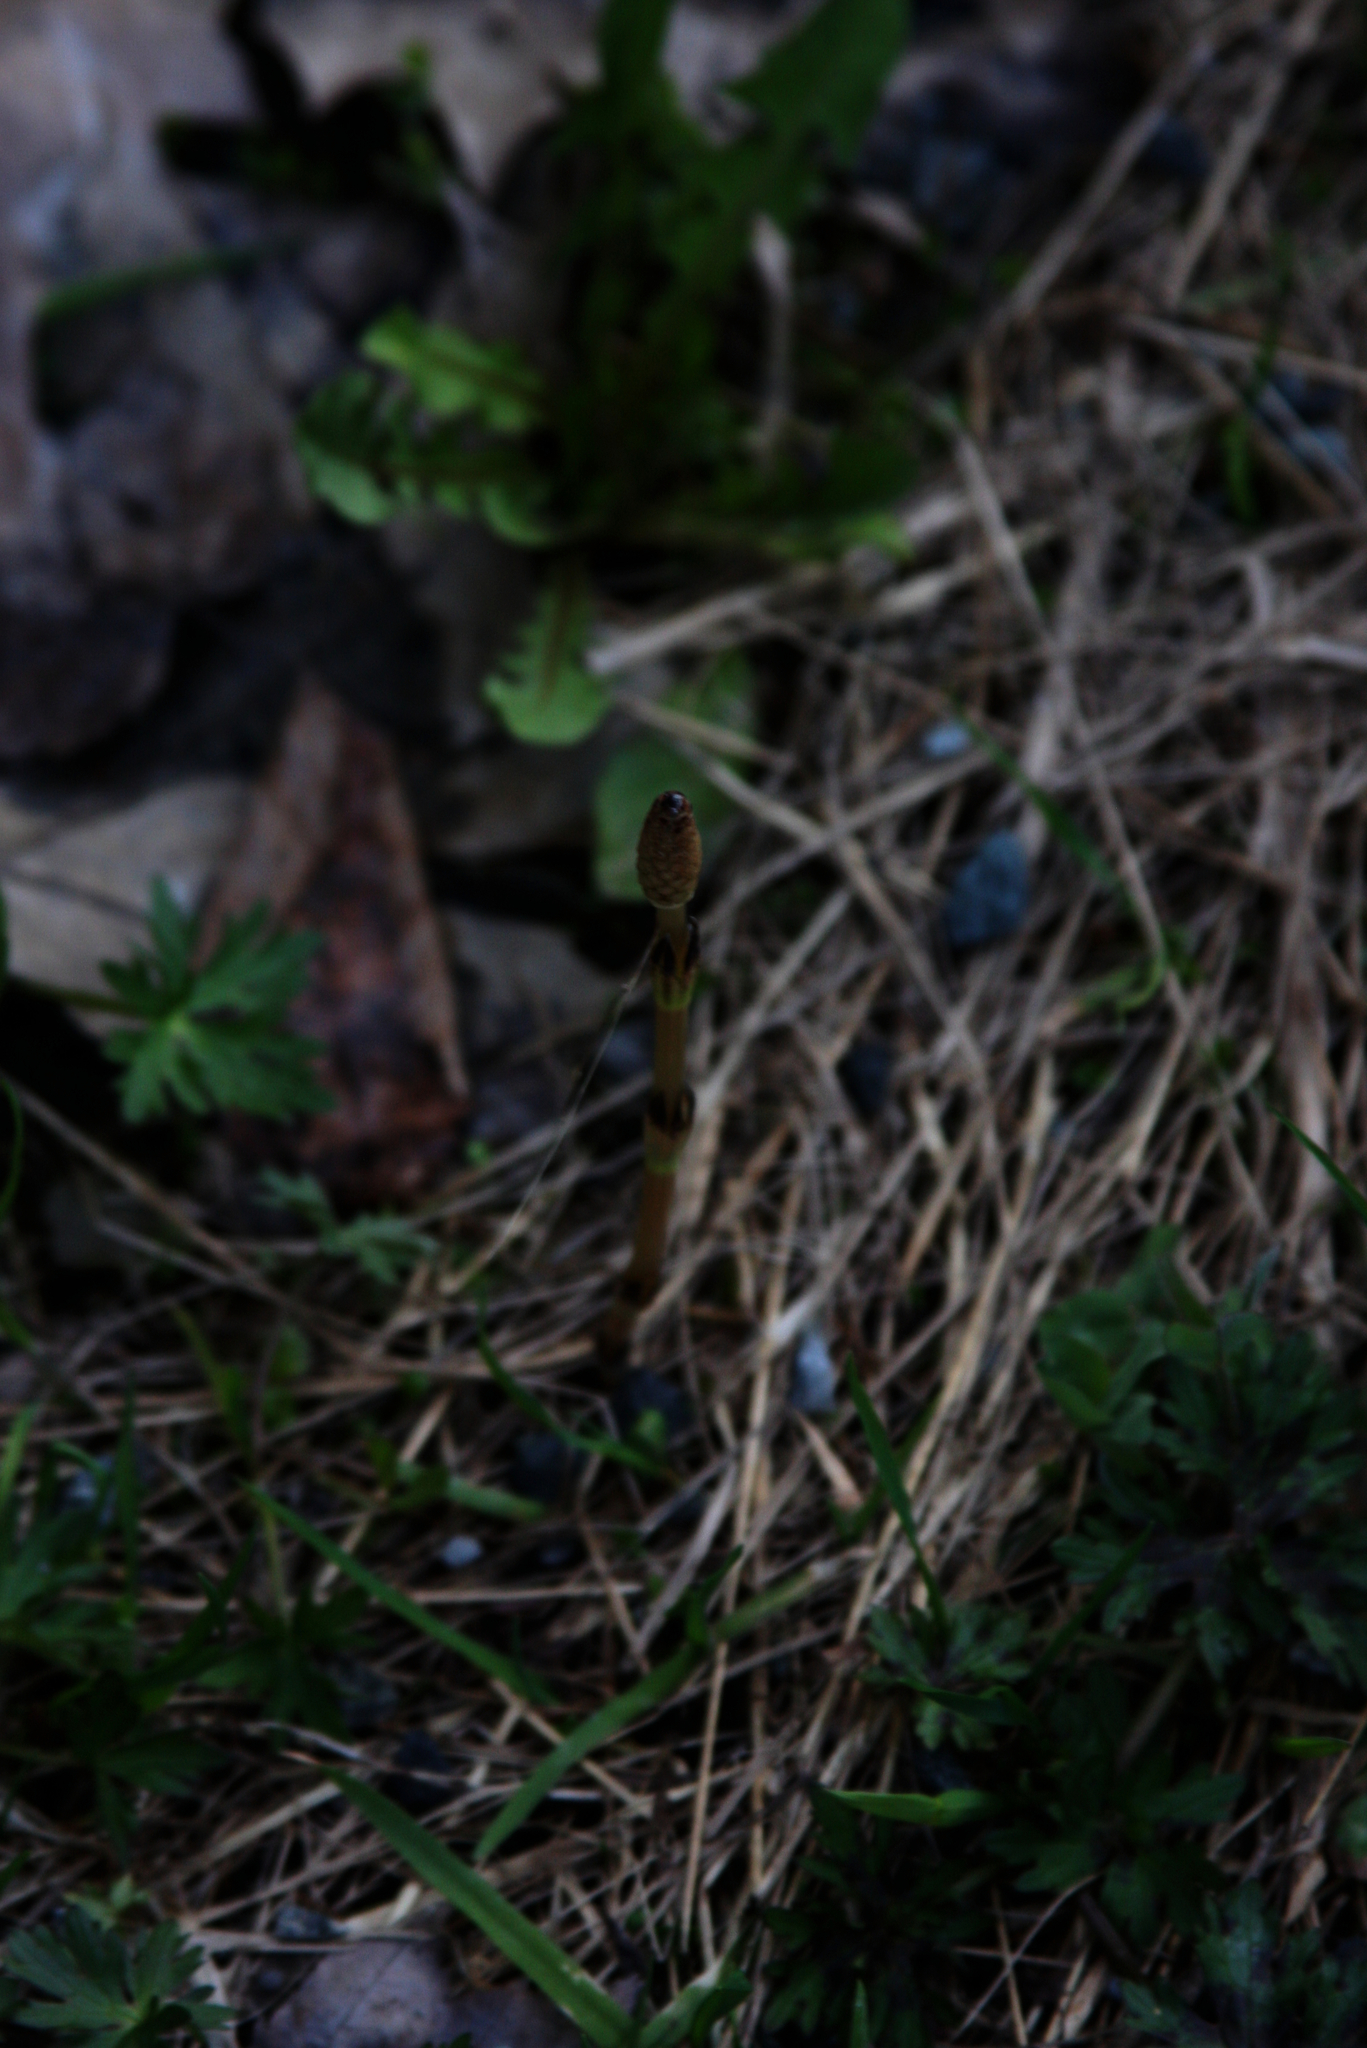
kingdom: Plantae
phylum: Tracheophyta
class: Polypodiopsida
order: Equisetales
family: Equisetaceae
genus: Equisetum
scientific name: Equisetum arvense
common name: Field horsetail
